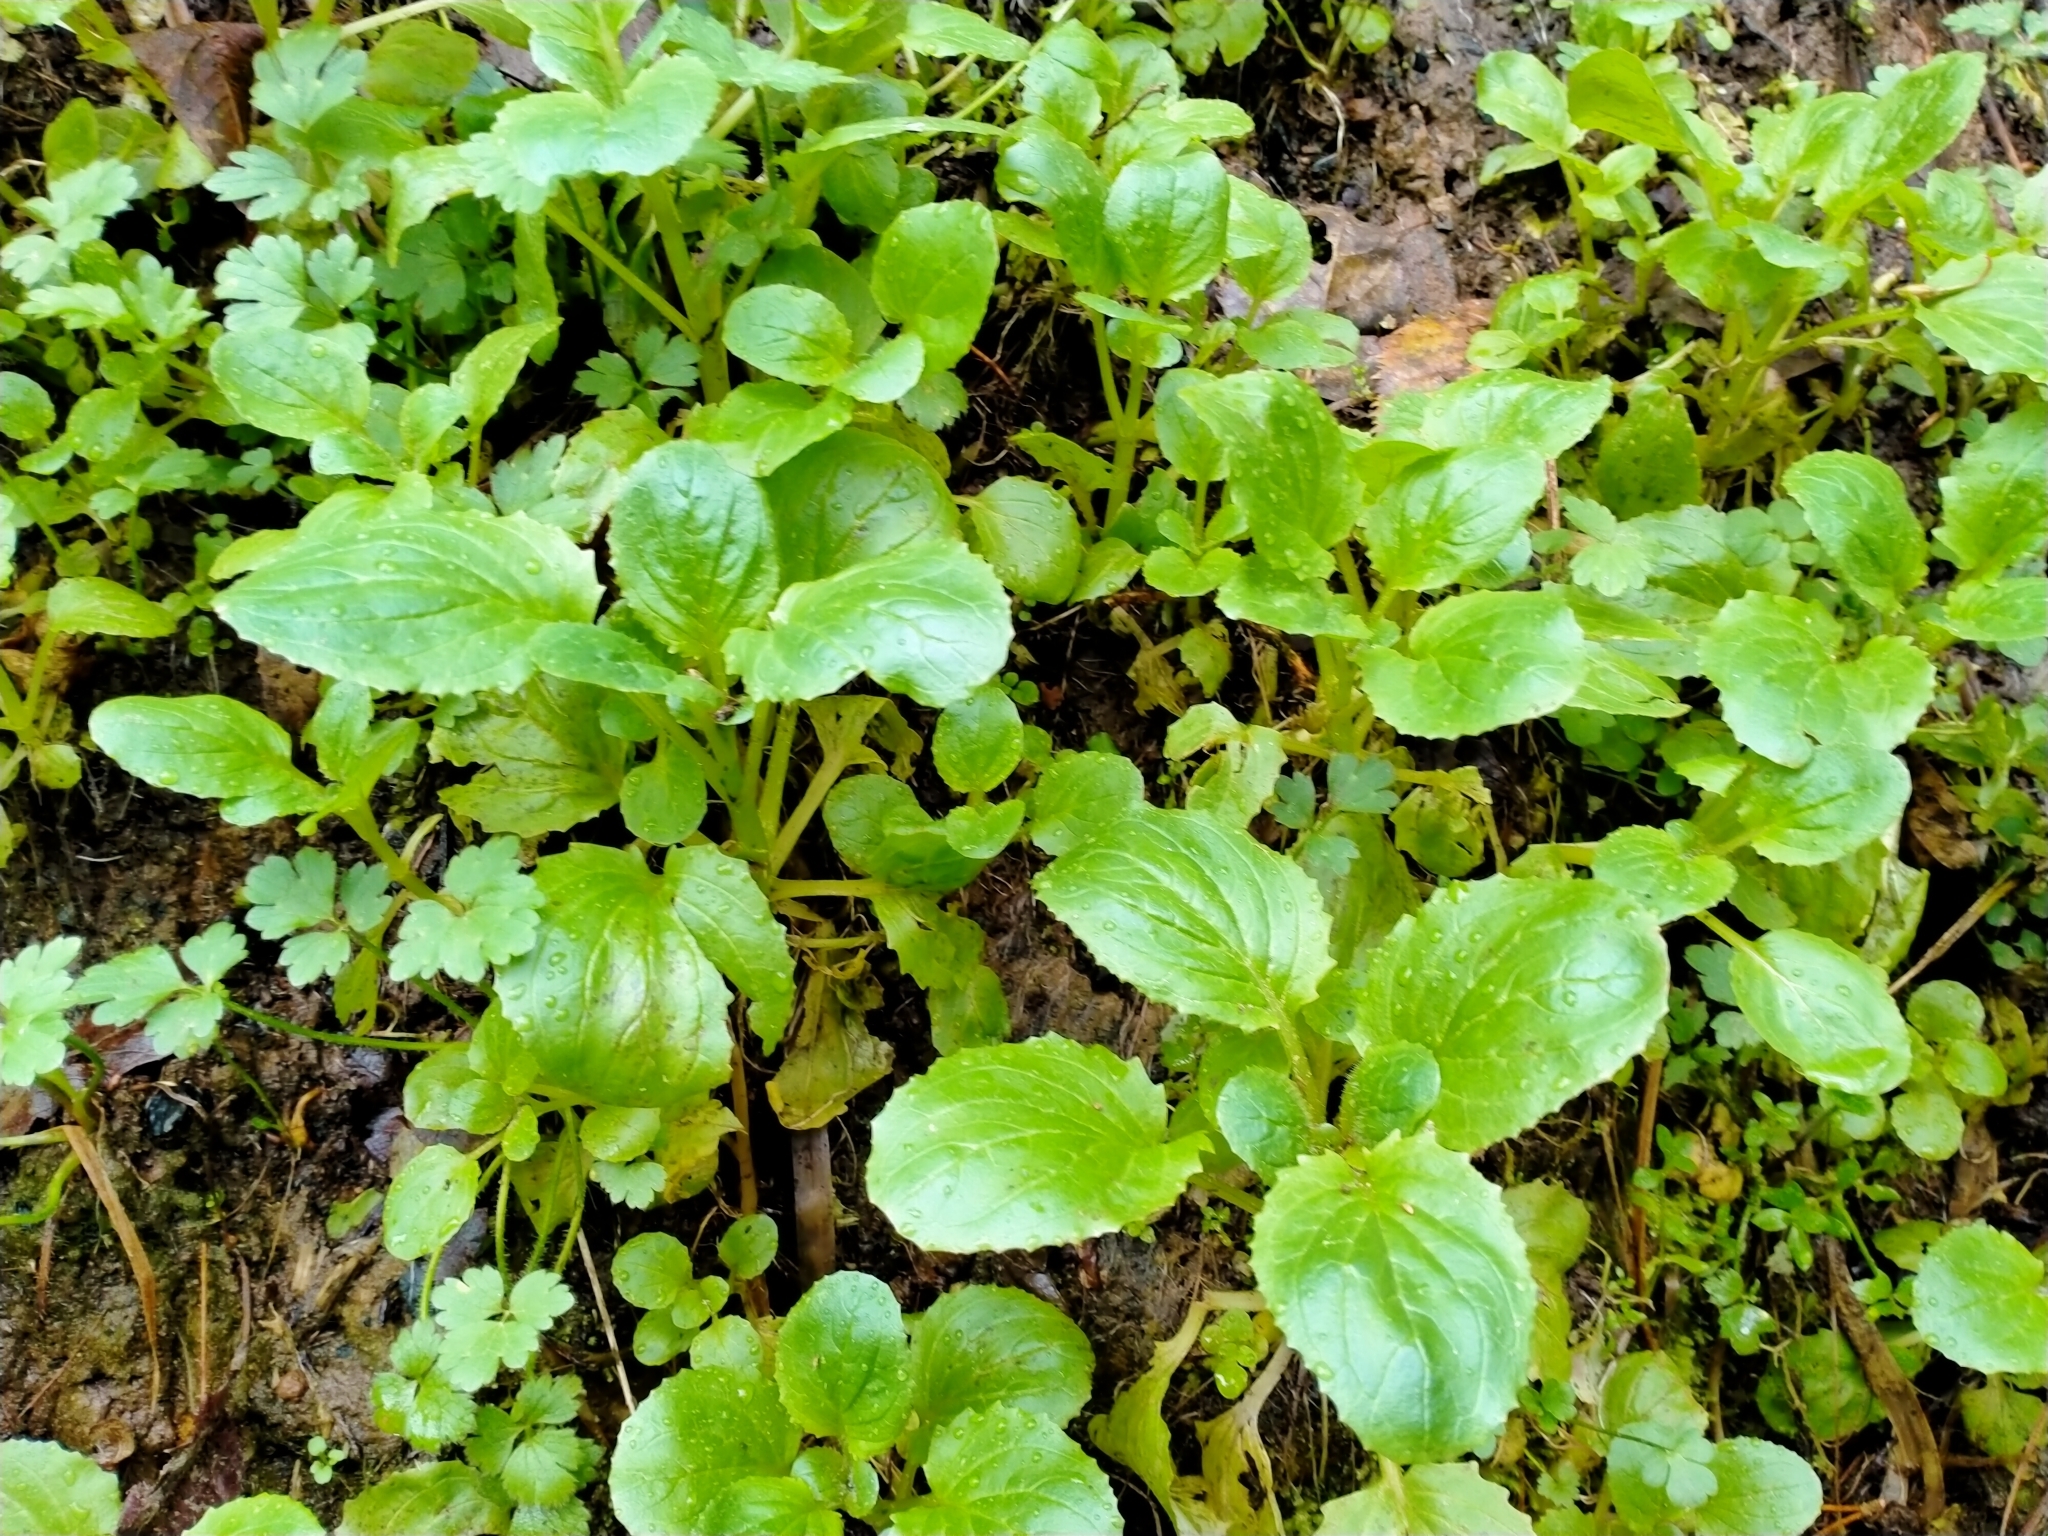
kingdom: Plantae
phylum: Tracheophyta
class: Magnoliopsida
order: Lamiales
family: Phrymaceae
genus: Erythranthe
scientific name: Erythranthe guttata
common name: Monkeyflower
